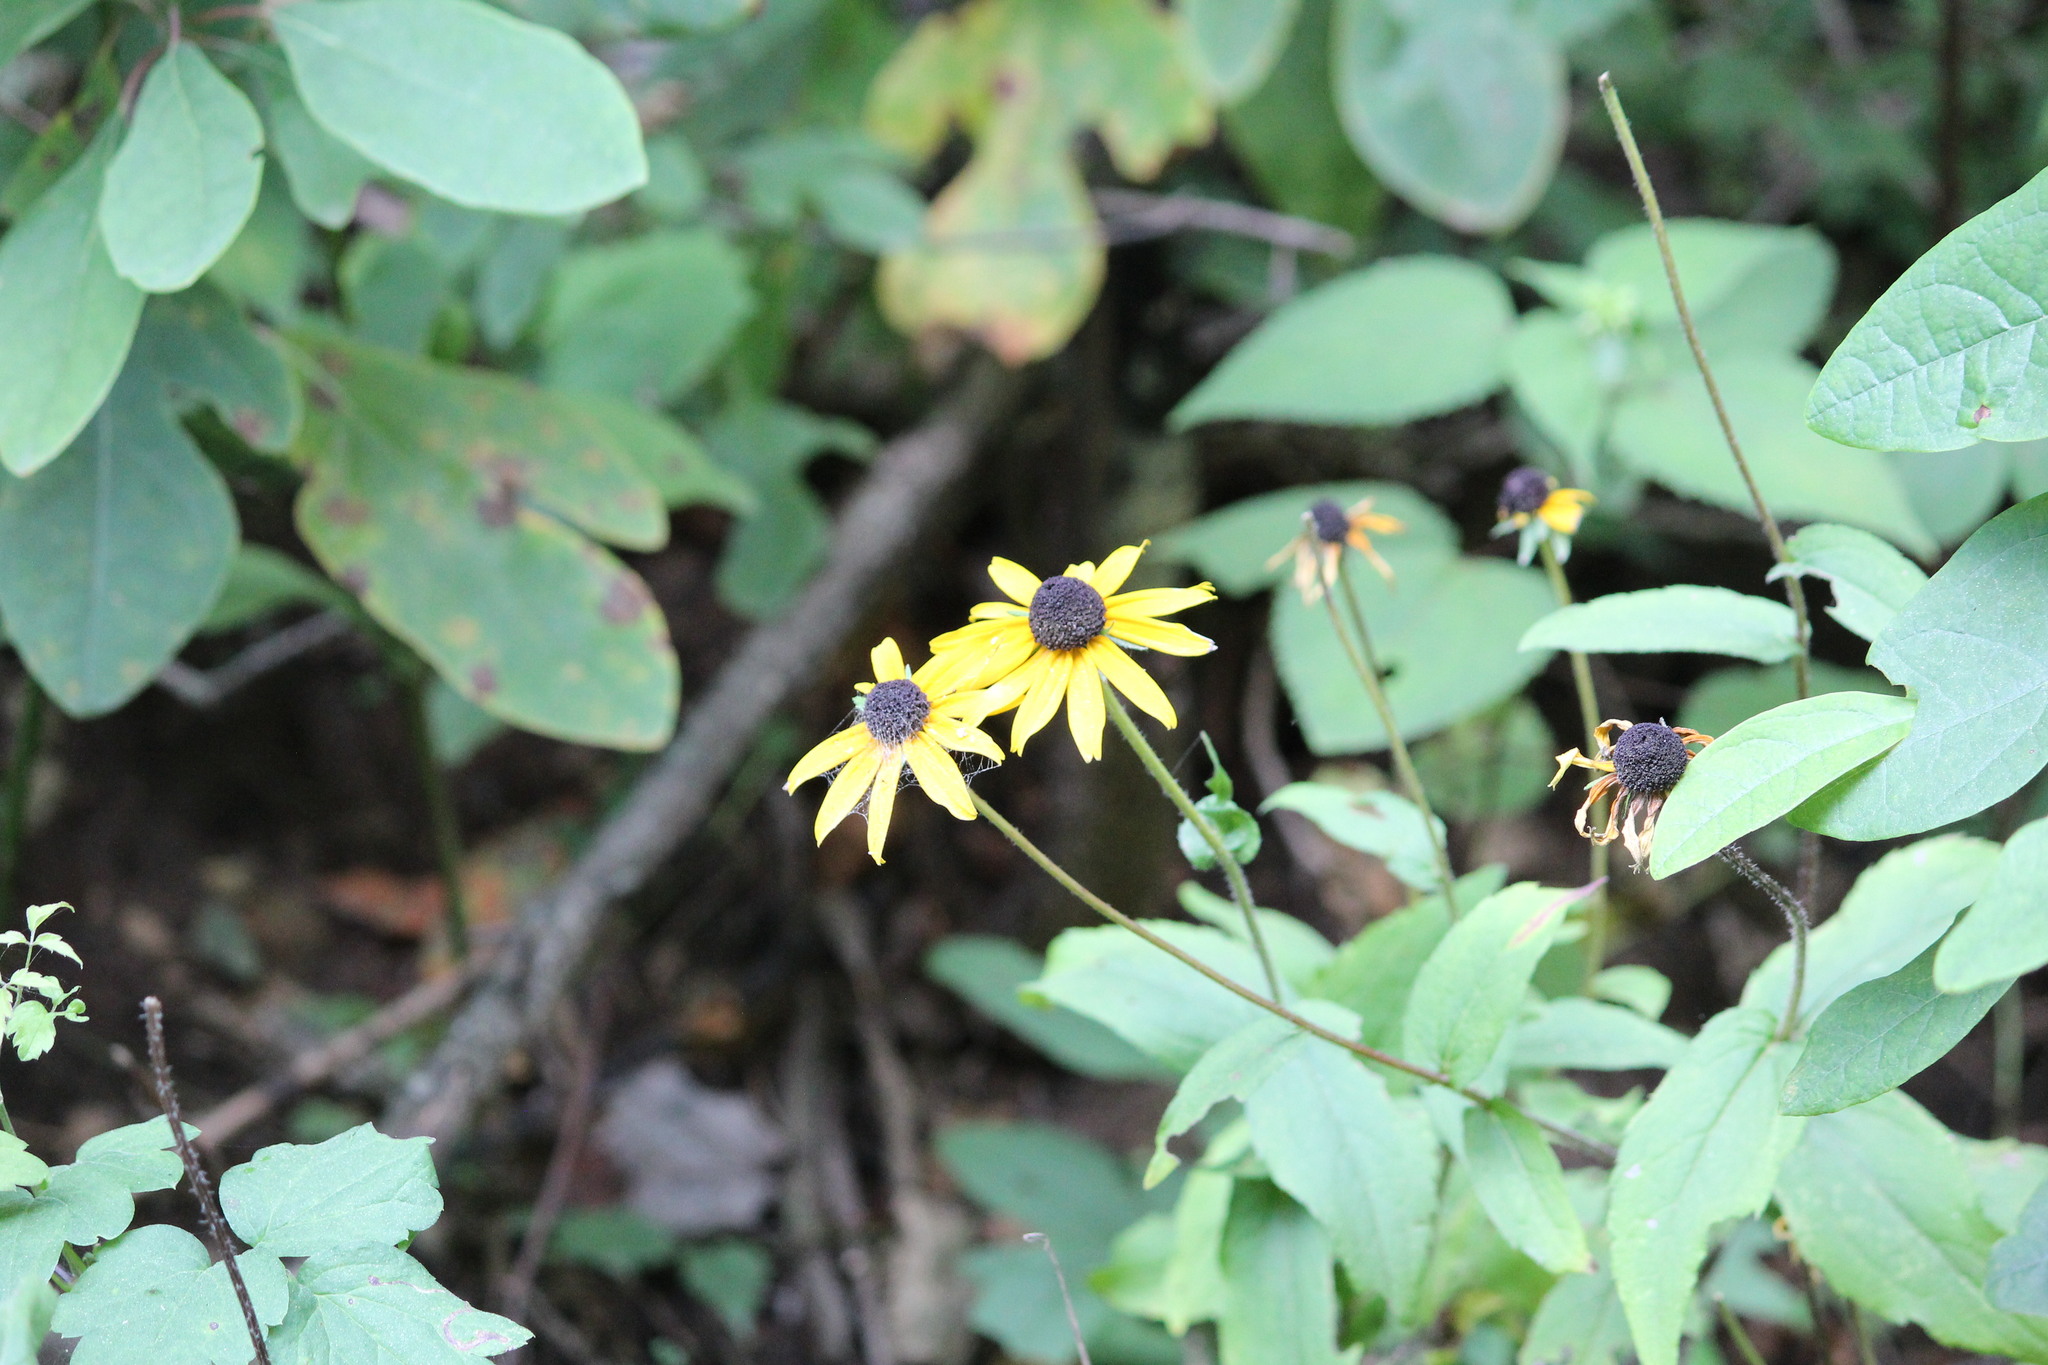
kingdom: Plantae
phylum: Tracheophyta
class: Magnoliopsida
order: Asterales
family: Asteraceae
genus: Rudbeckia
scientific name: Rudbeckia hirta
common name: Black-eyed-susan
